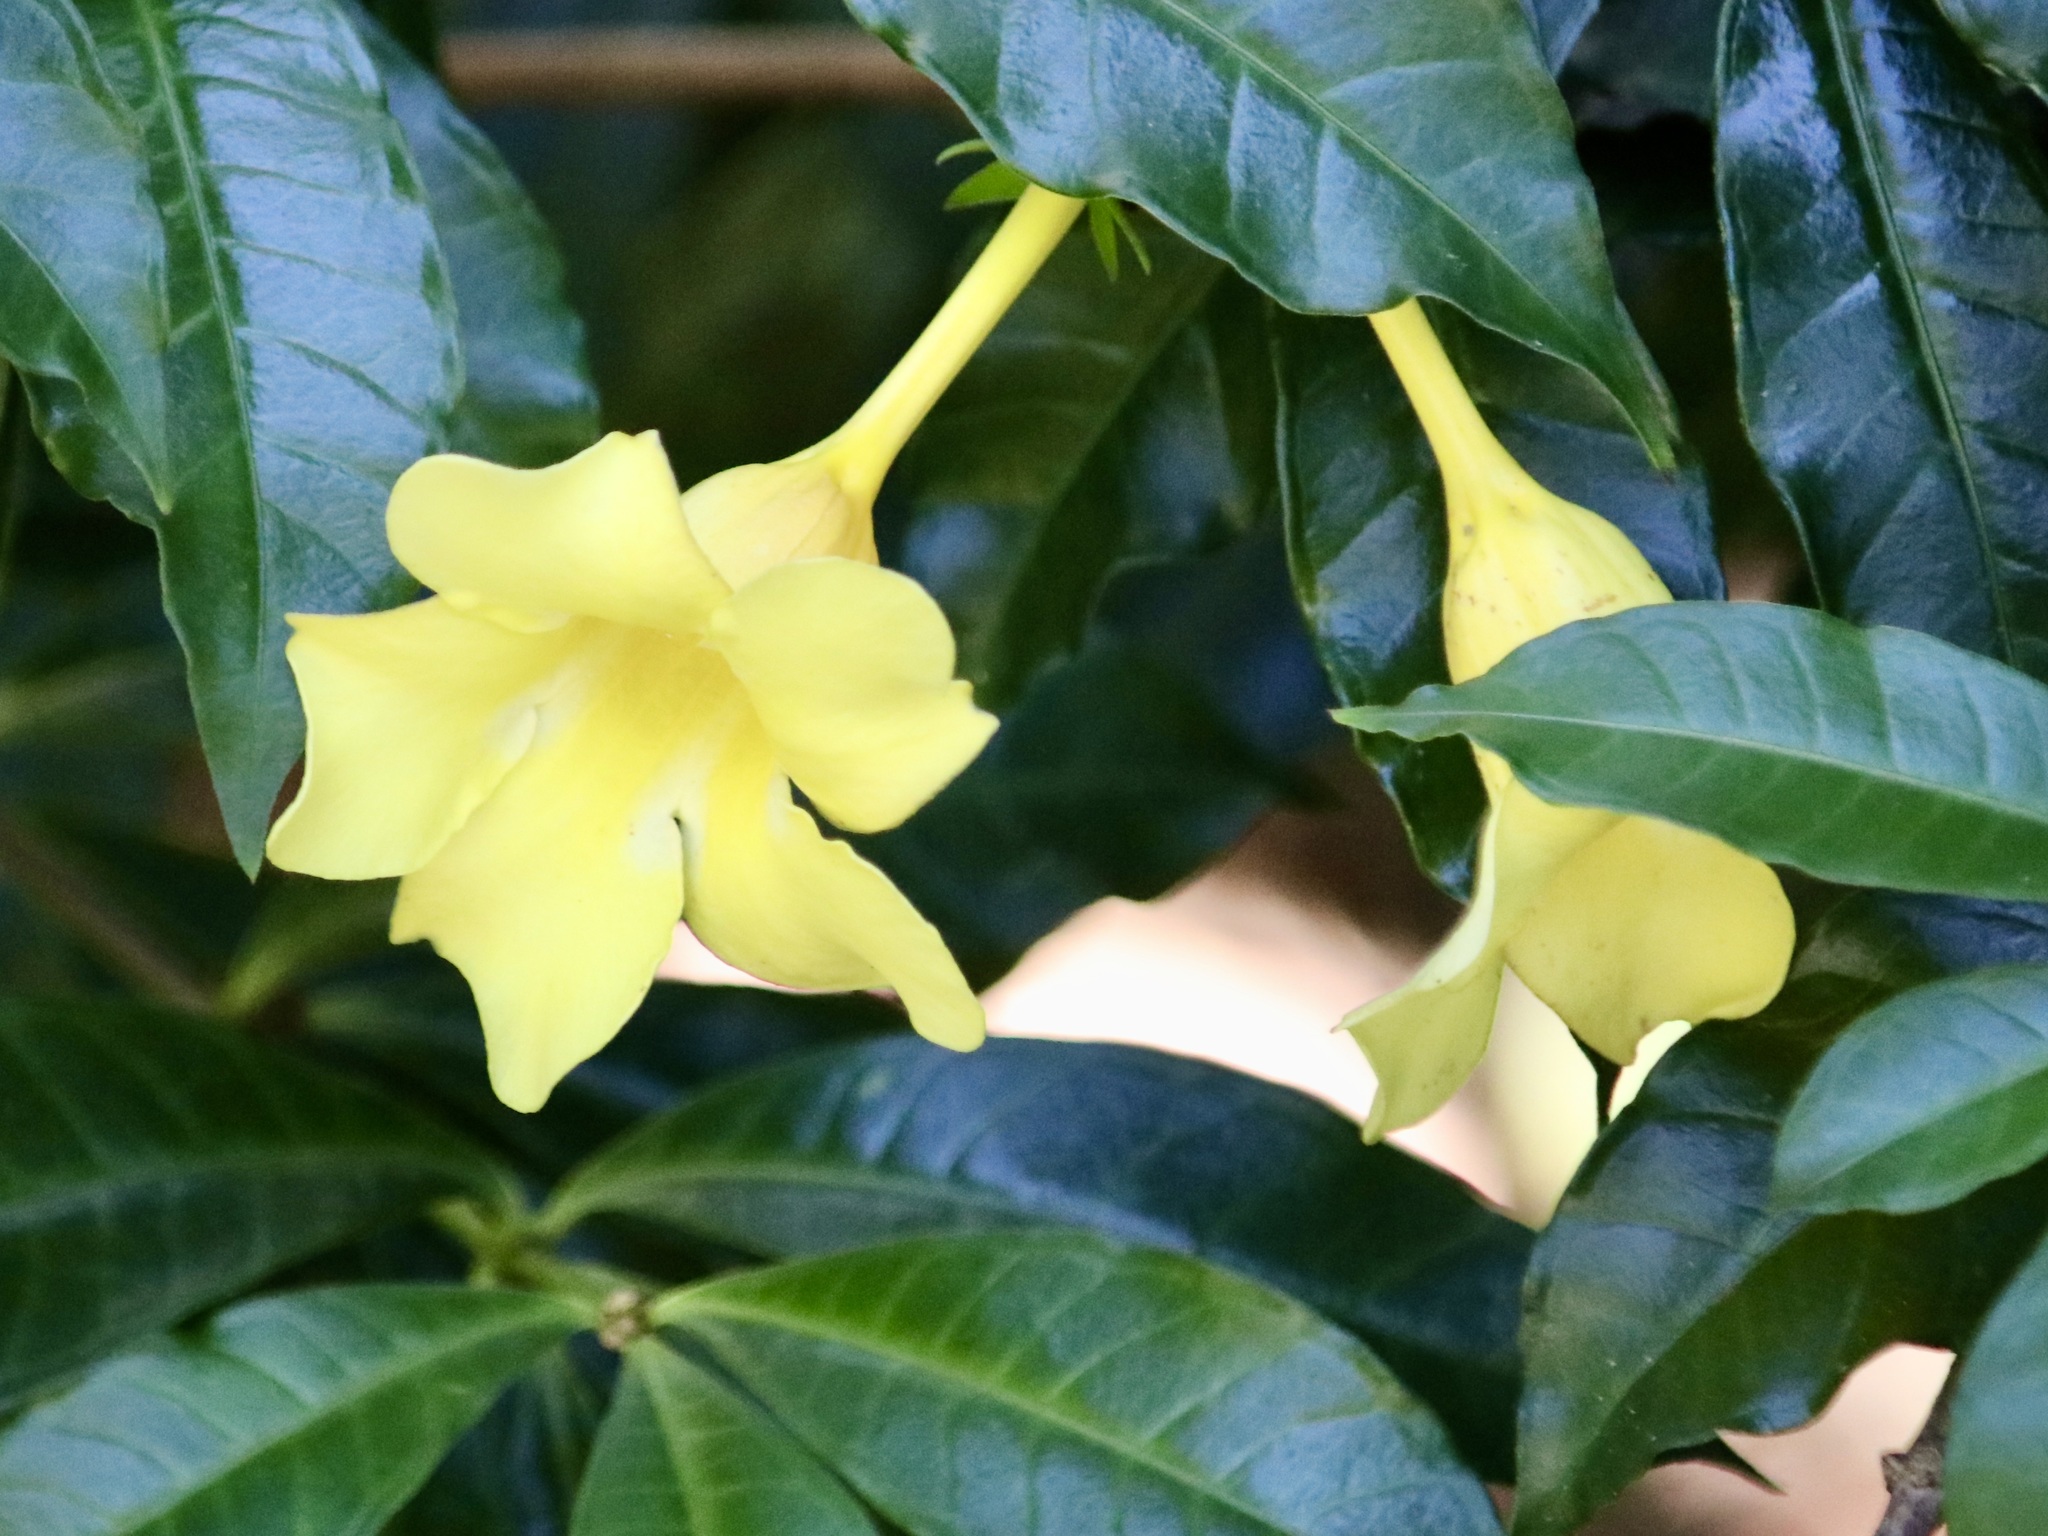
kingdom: Plantae
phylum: Tracheophyta
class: Magnoliopsida
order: Gentianales
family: Apocynaceae
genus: Allamanda
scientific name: Allamanda cathartica
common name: Golden trumpet
